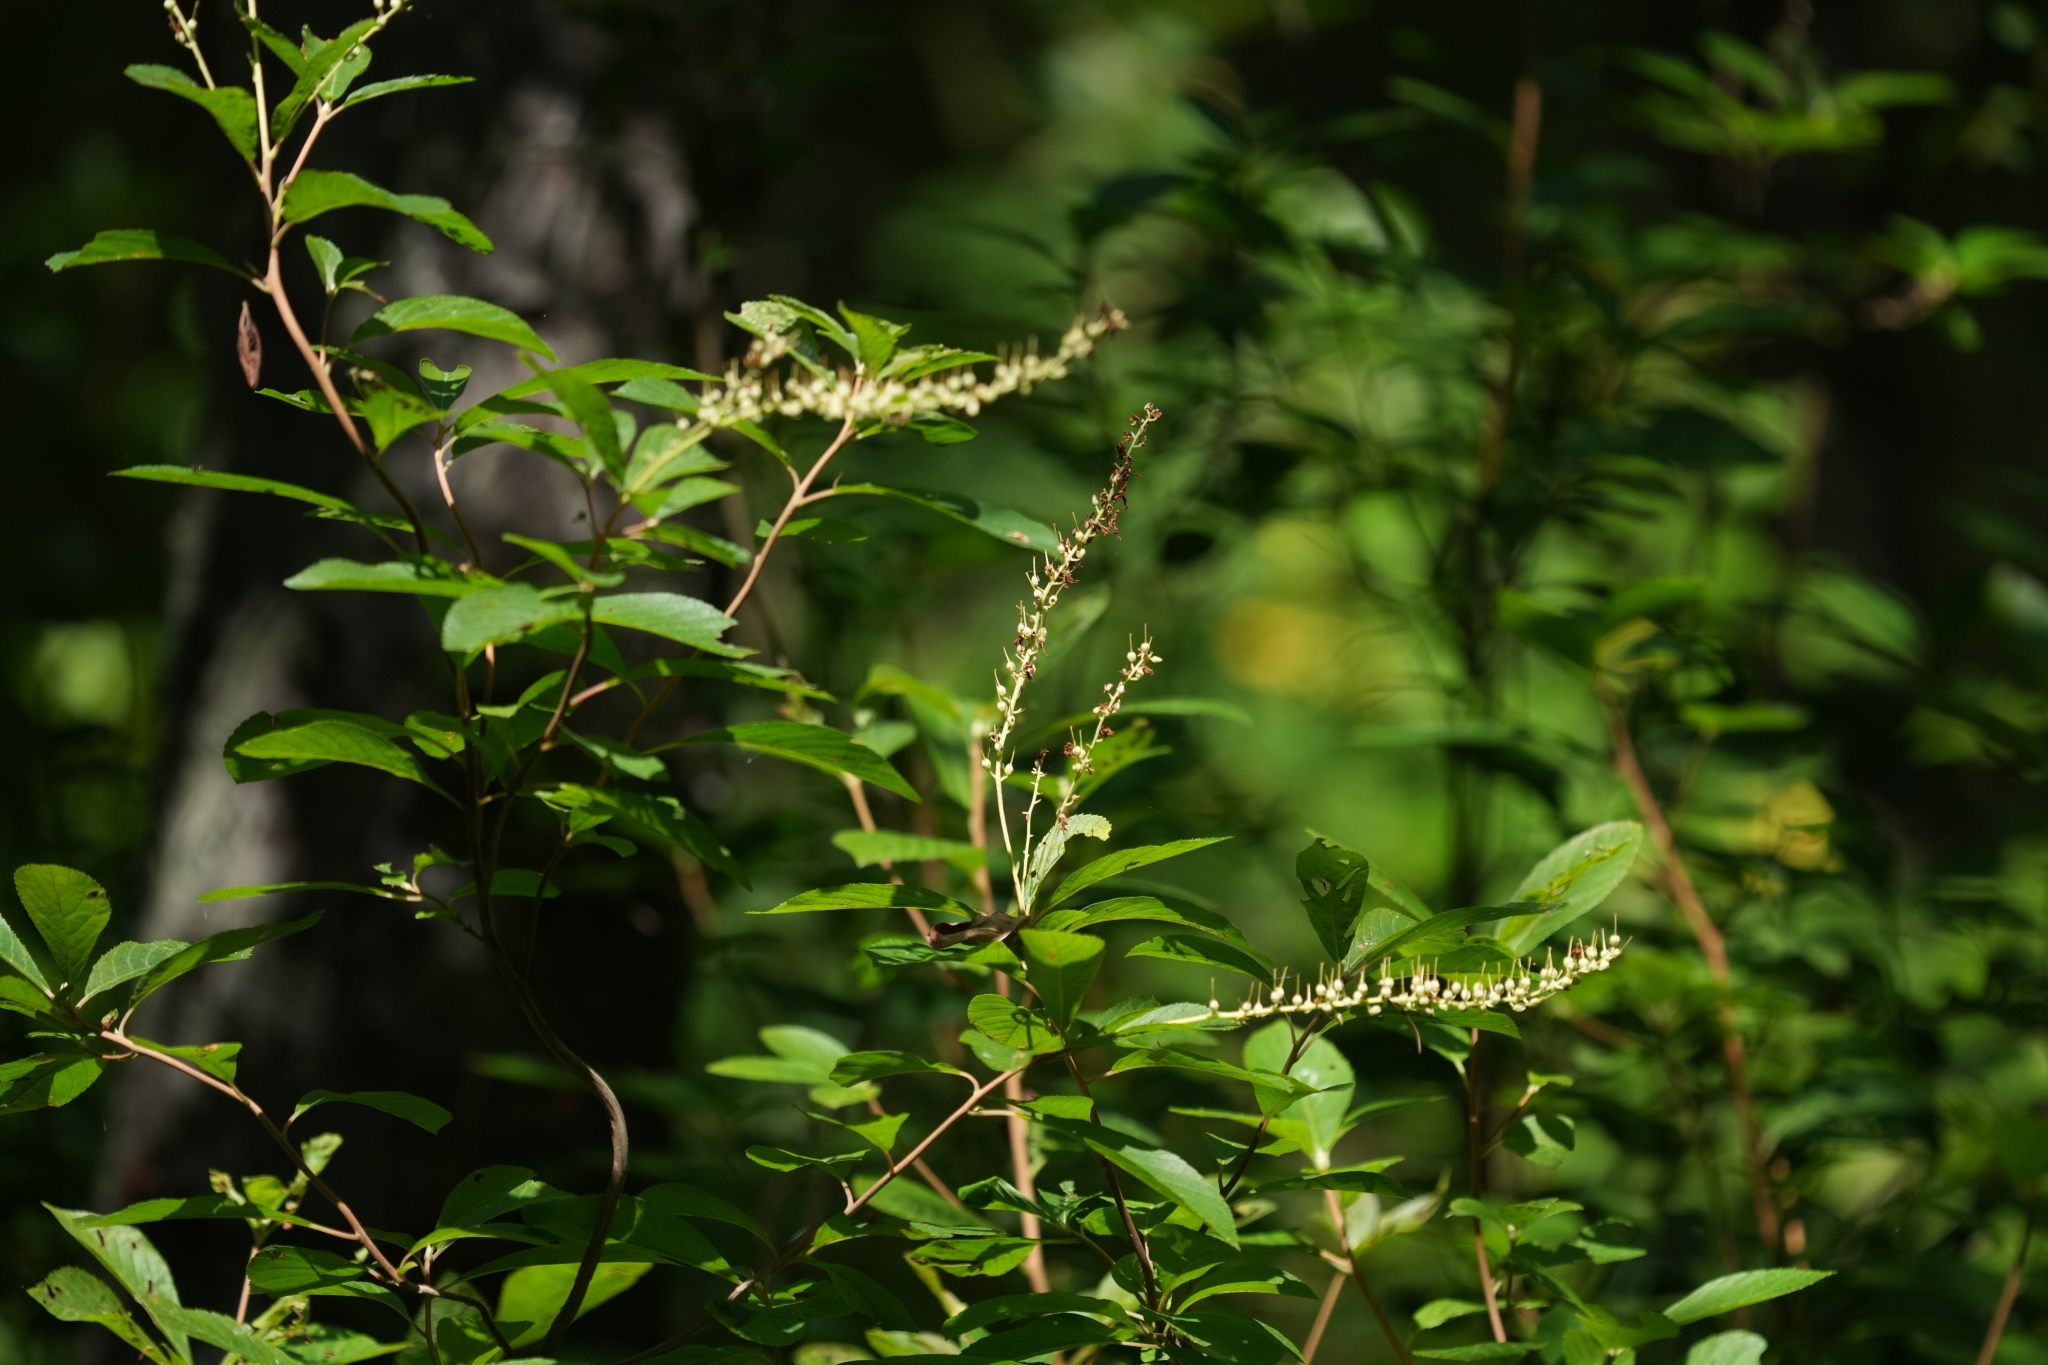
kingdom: Plantae
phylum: Tracheophyta
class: Magnoliopsida
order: Ericales
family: Clethraceae
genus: Clethra
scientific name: Clethra alnifolia
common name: Sweet pepperbush
